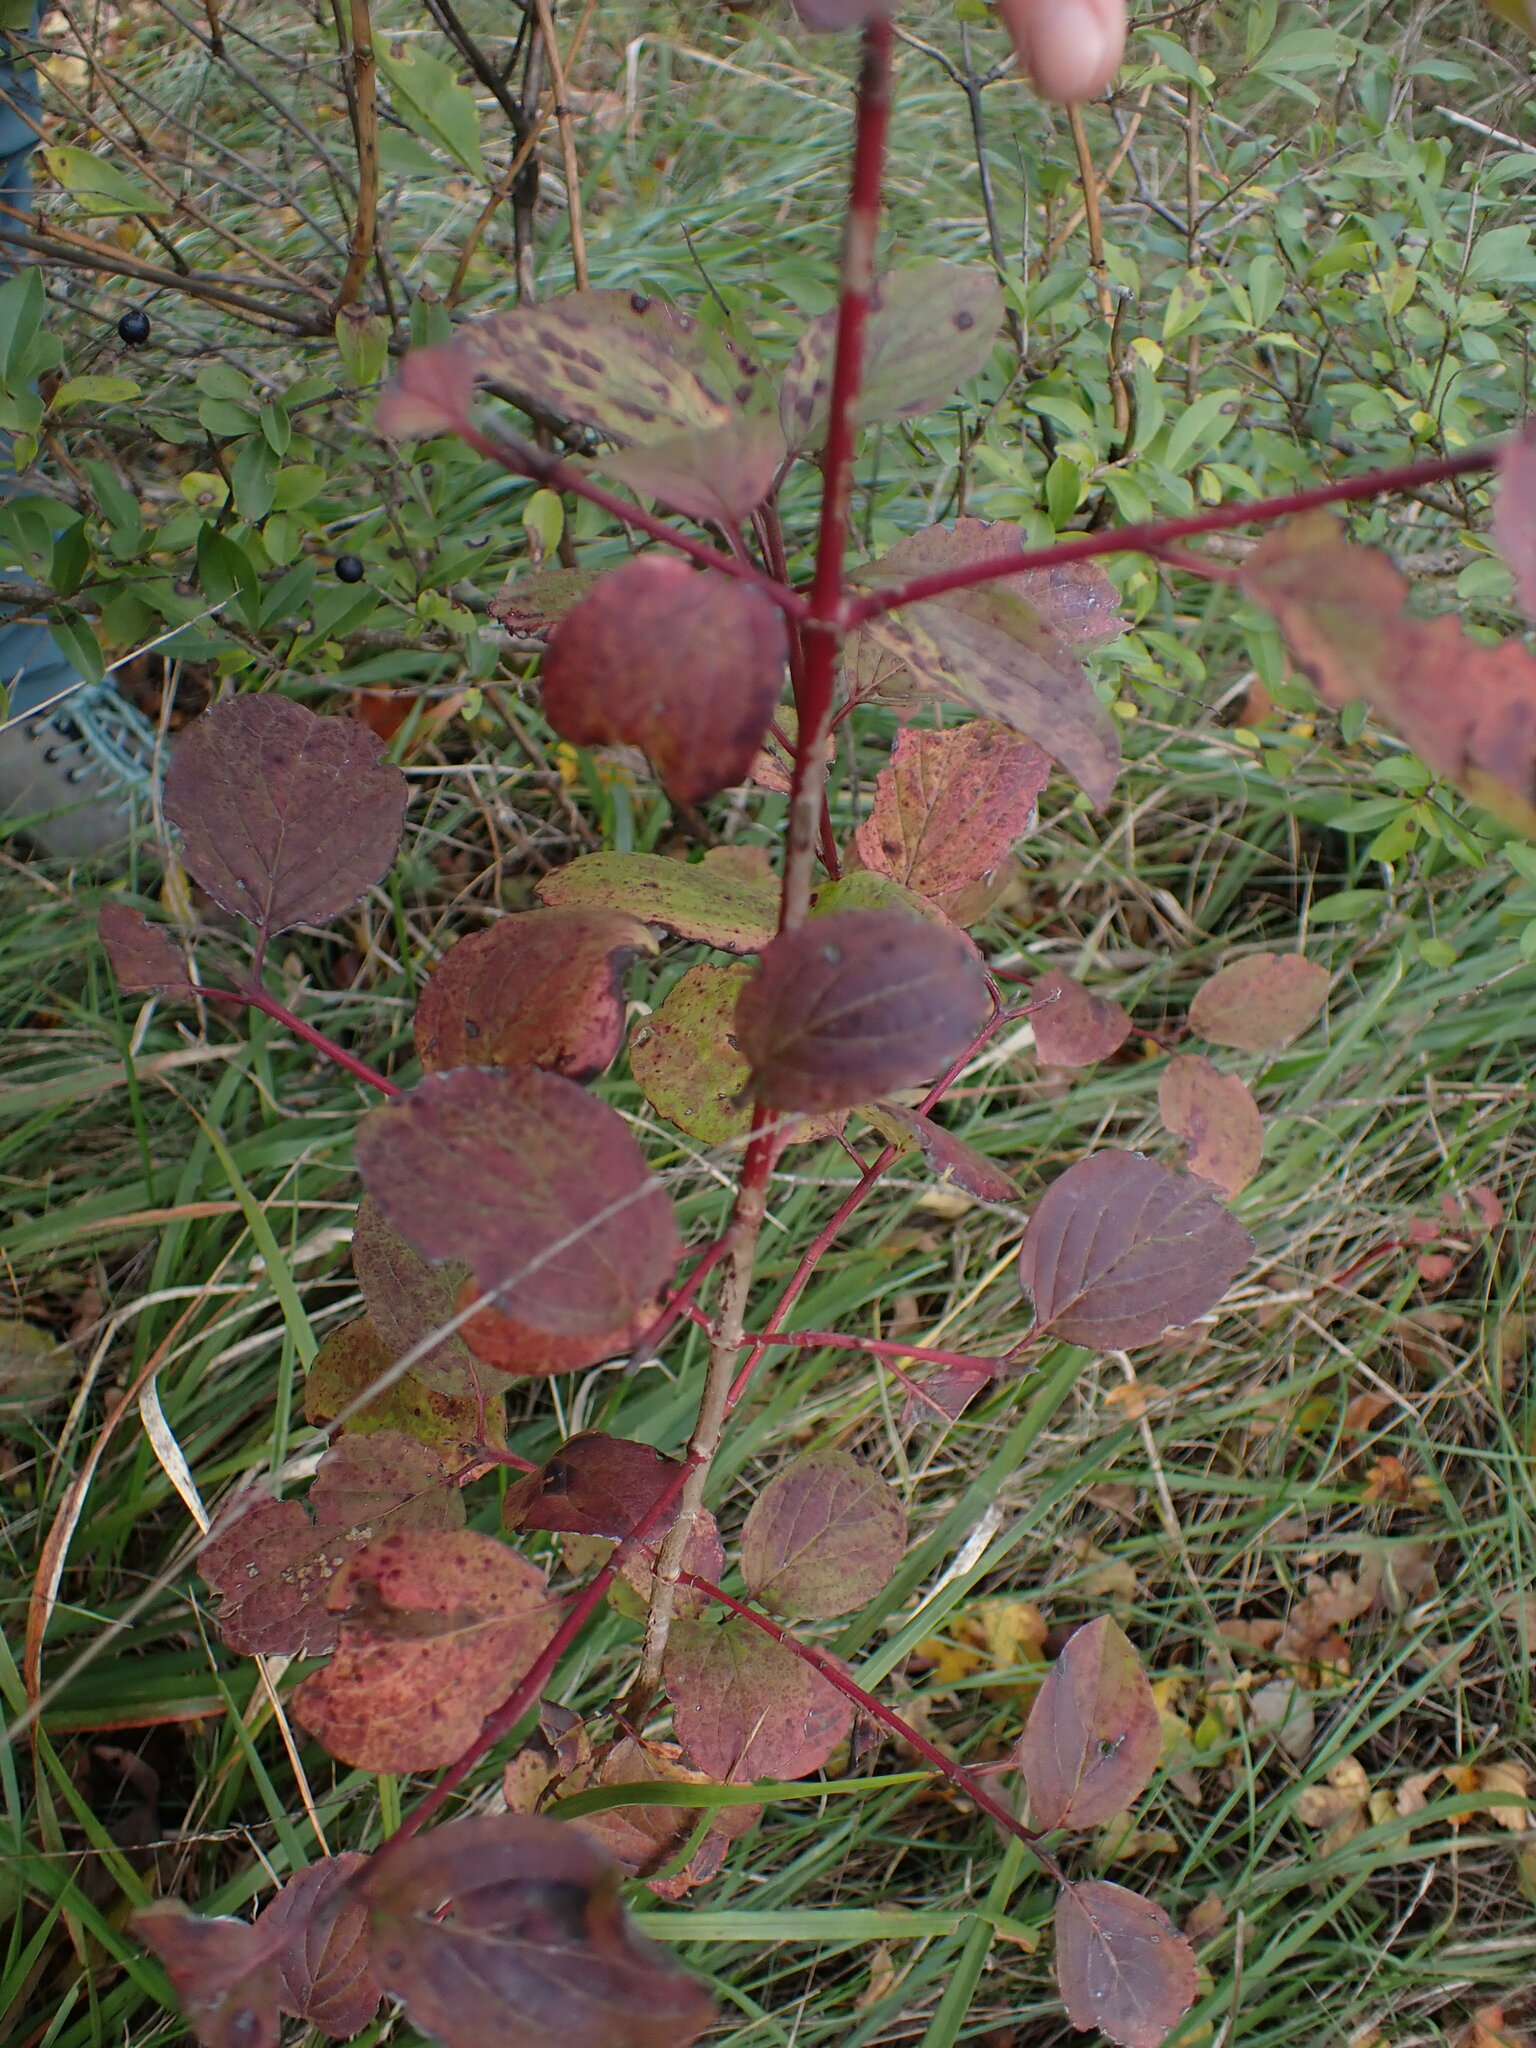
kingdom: Plantae
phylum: Tracheophyta
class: Magnoliopsida
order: Cornales
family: Cornaceae
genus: Cornus
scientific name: Cornus sanguinea
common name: Dogwood
